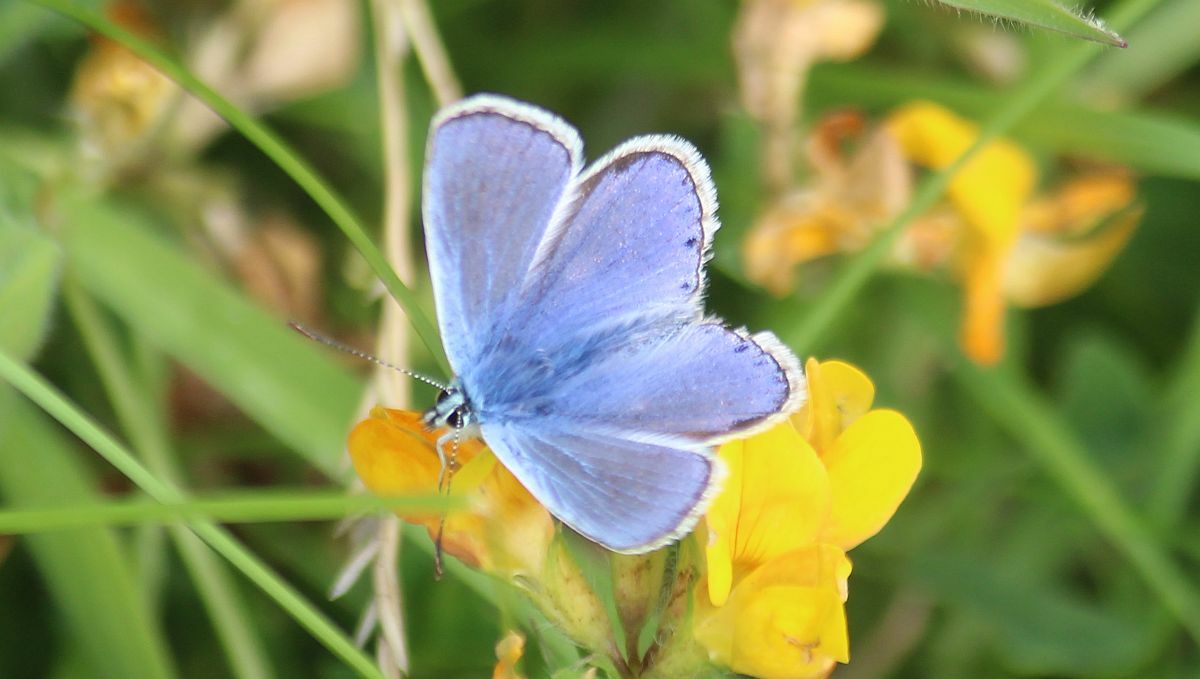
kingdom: Animalia
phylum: Arthropoda
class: Insecta
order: Lepidoptera
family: Lycaenidae
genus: Polyommatus
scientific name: Polyommatus icarus
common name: Common blue
